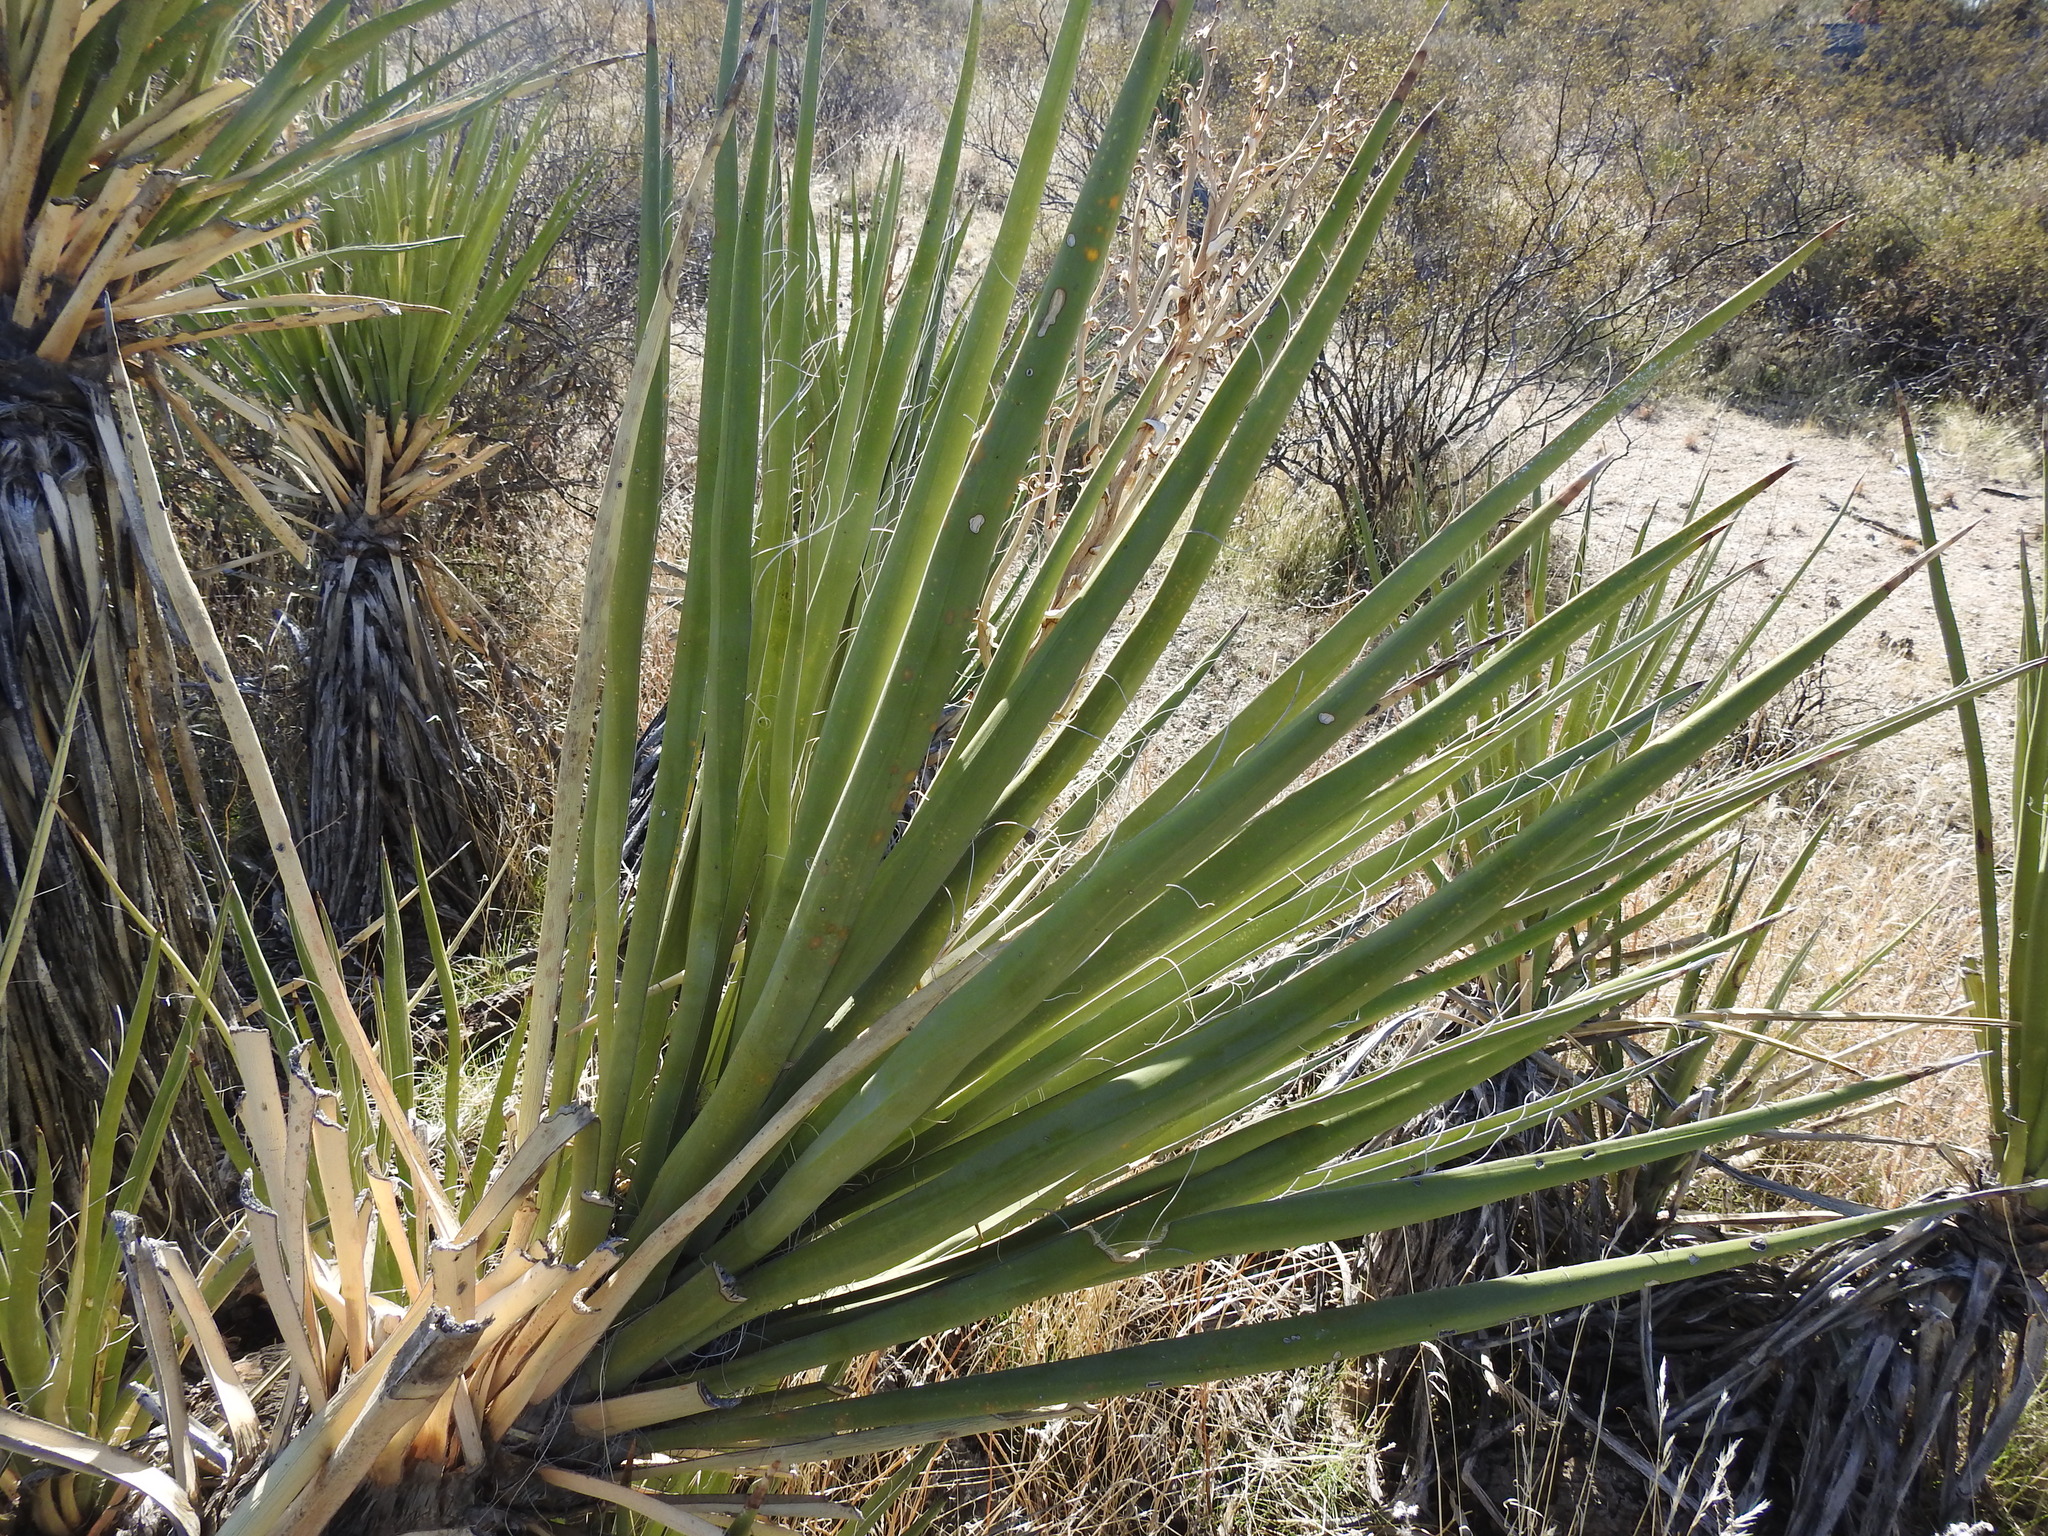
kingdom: Plantae
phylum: Tracheophyta
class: Liliopsida
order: Asparagales
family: Asparagaceae
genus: Yucca
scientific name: Yucca baccata
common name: Banana yucca
